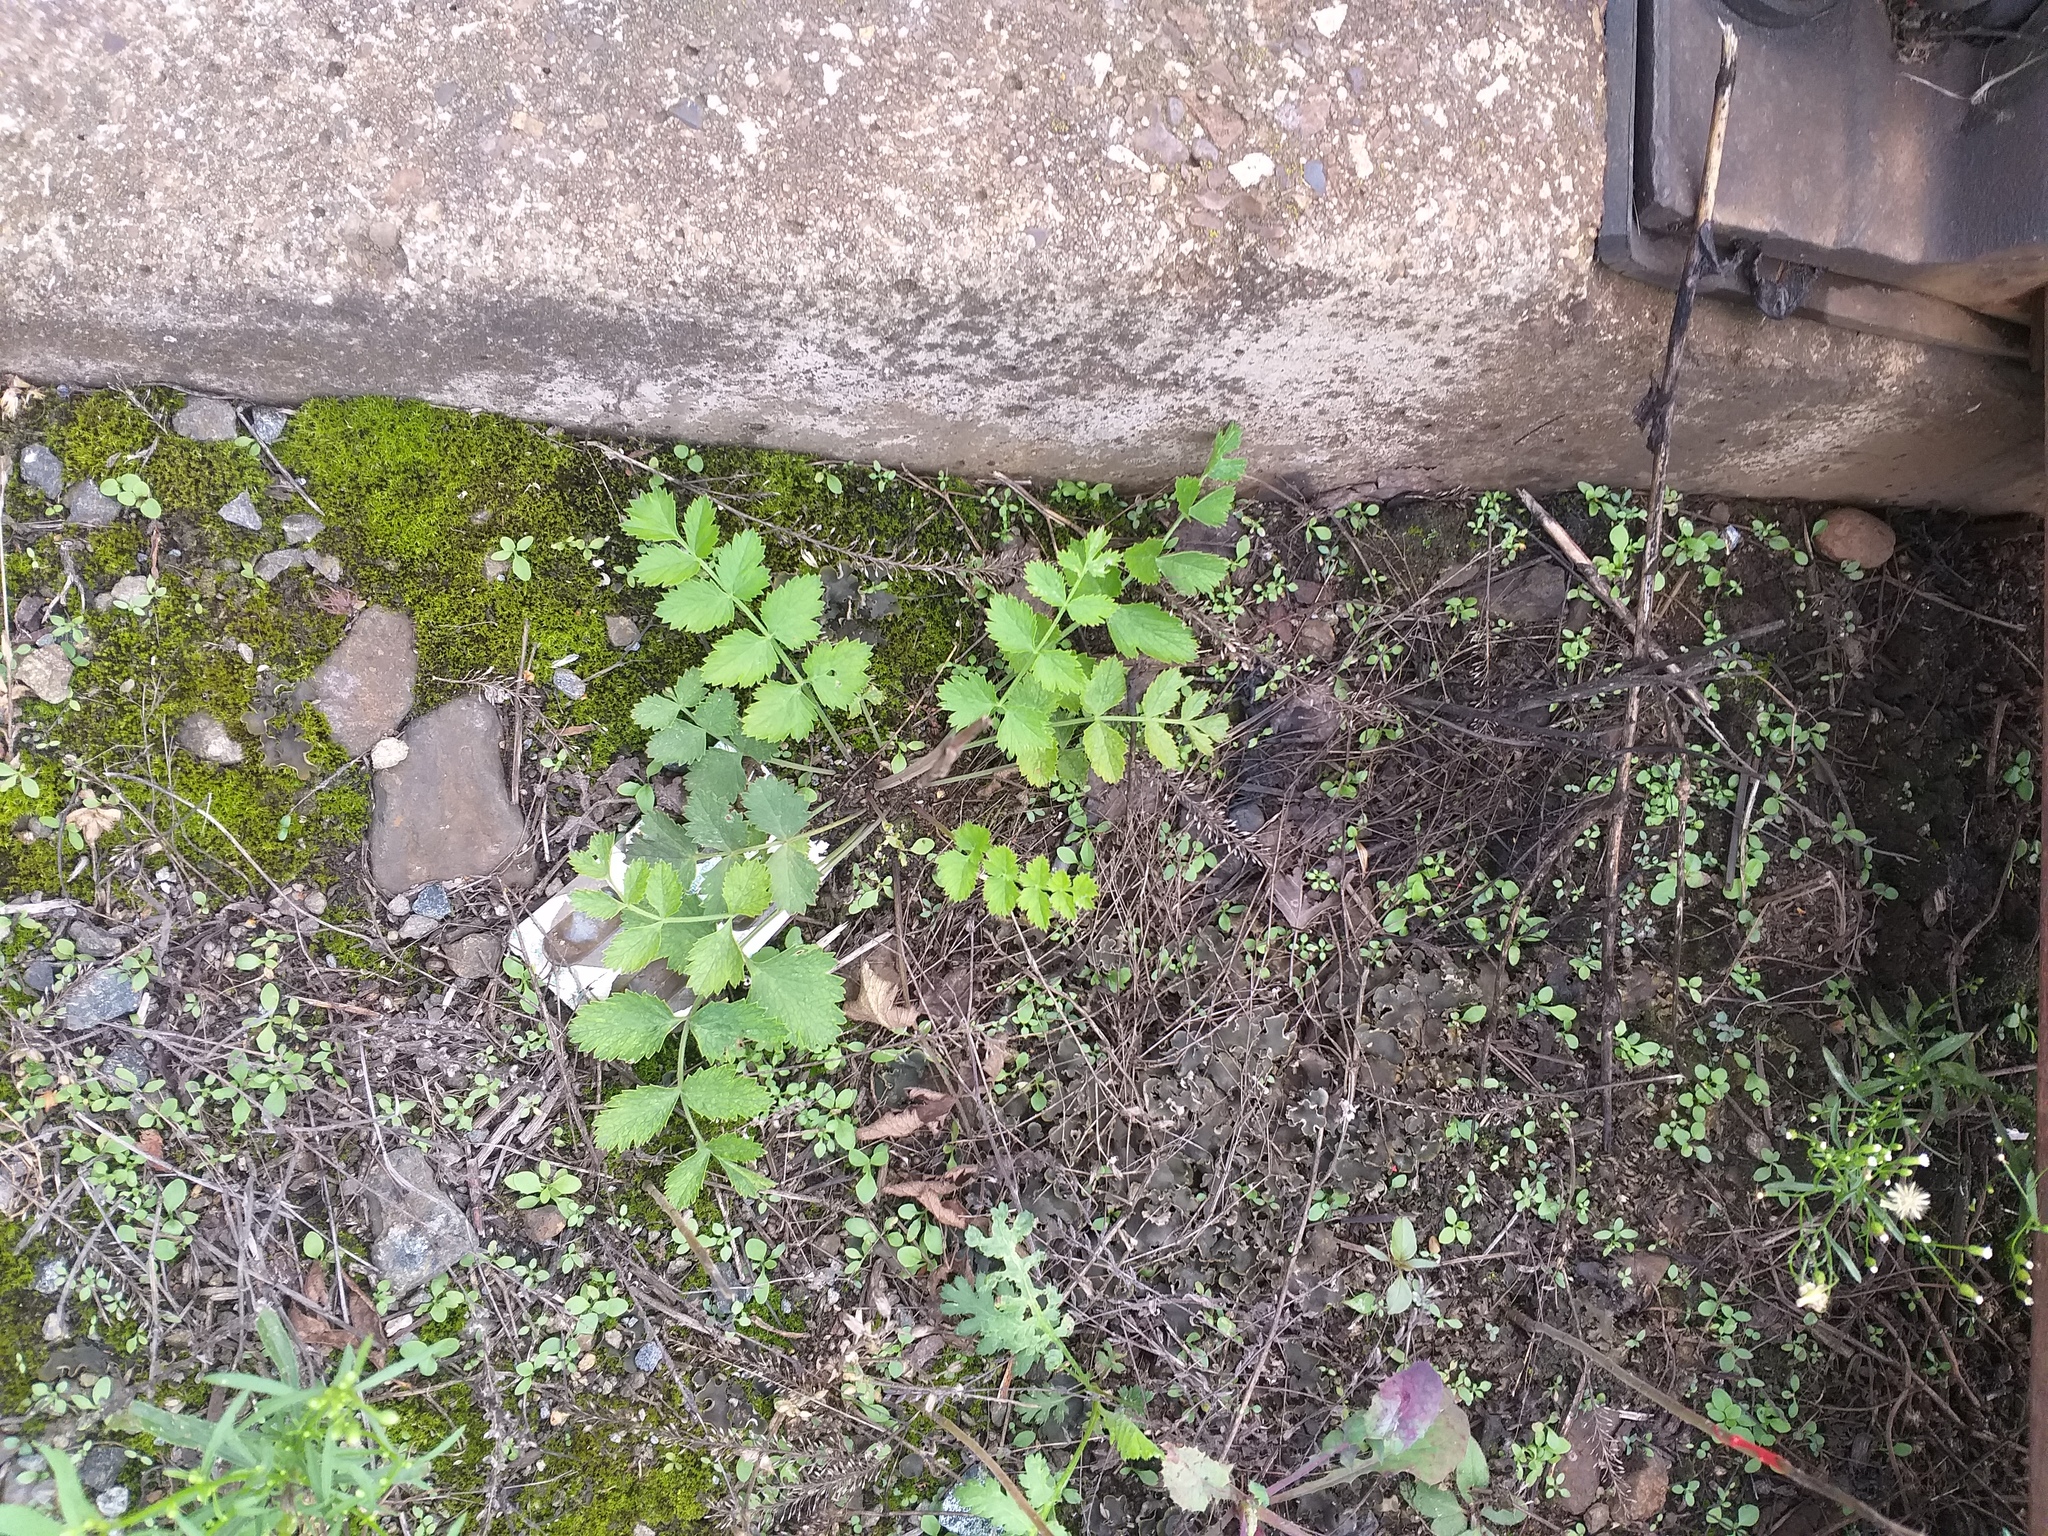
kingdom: Plantae
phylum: Tracheophyta
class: Magnoliopsida
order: Apiales
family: Apiaceae
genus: Pimpinella
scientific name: Pimpinella saxifraga
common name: Burnet-saxifrage
